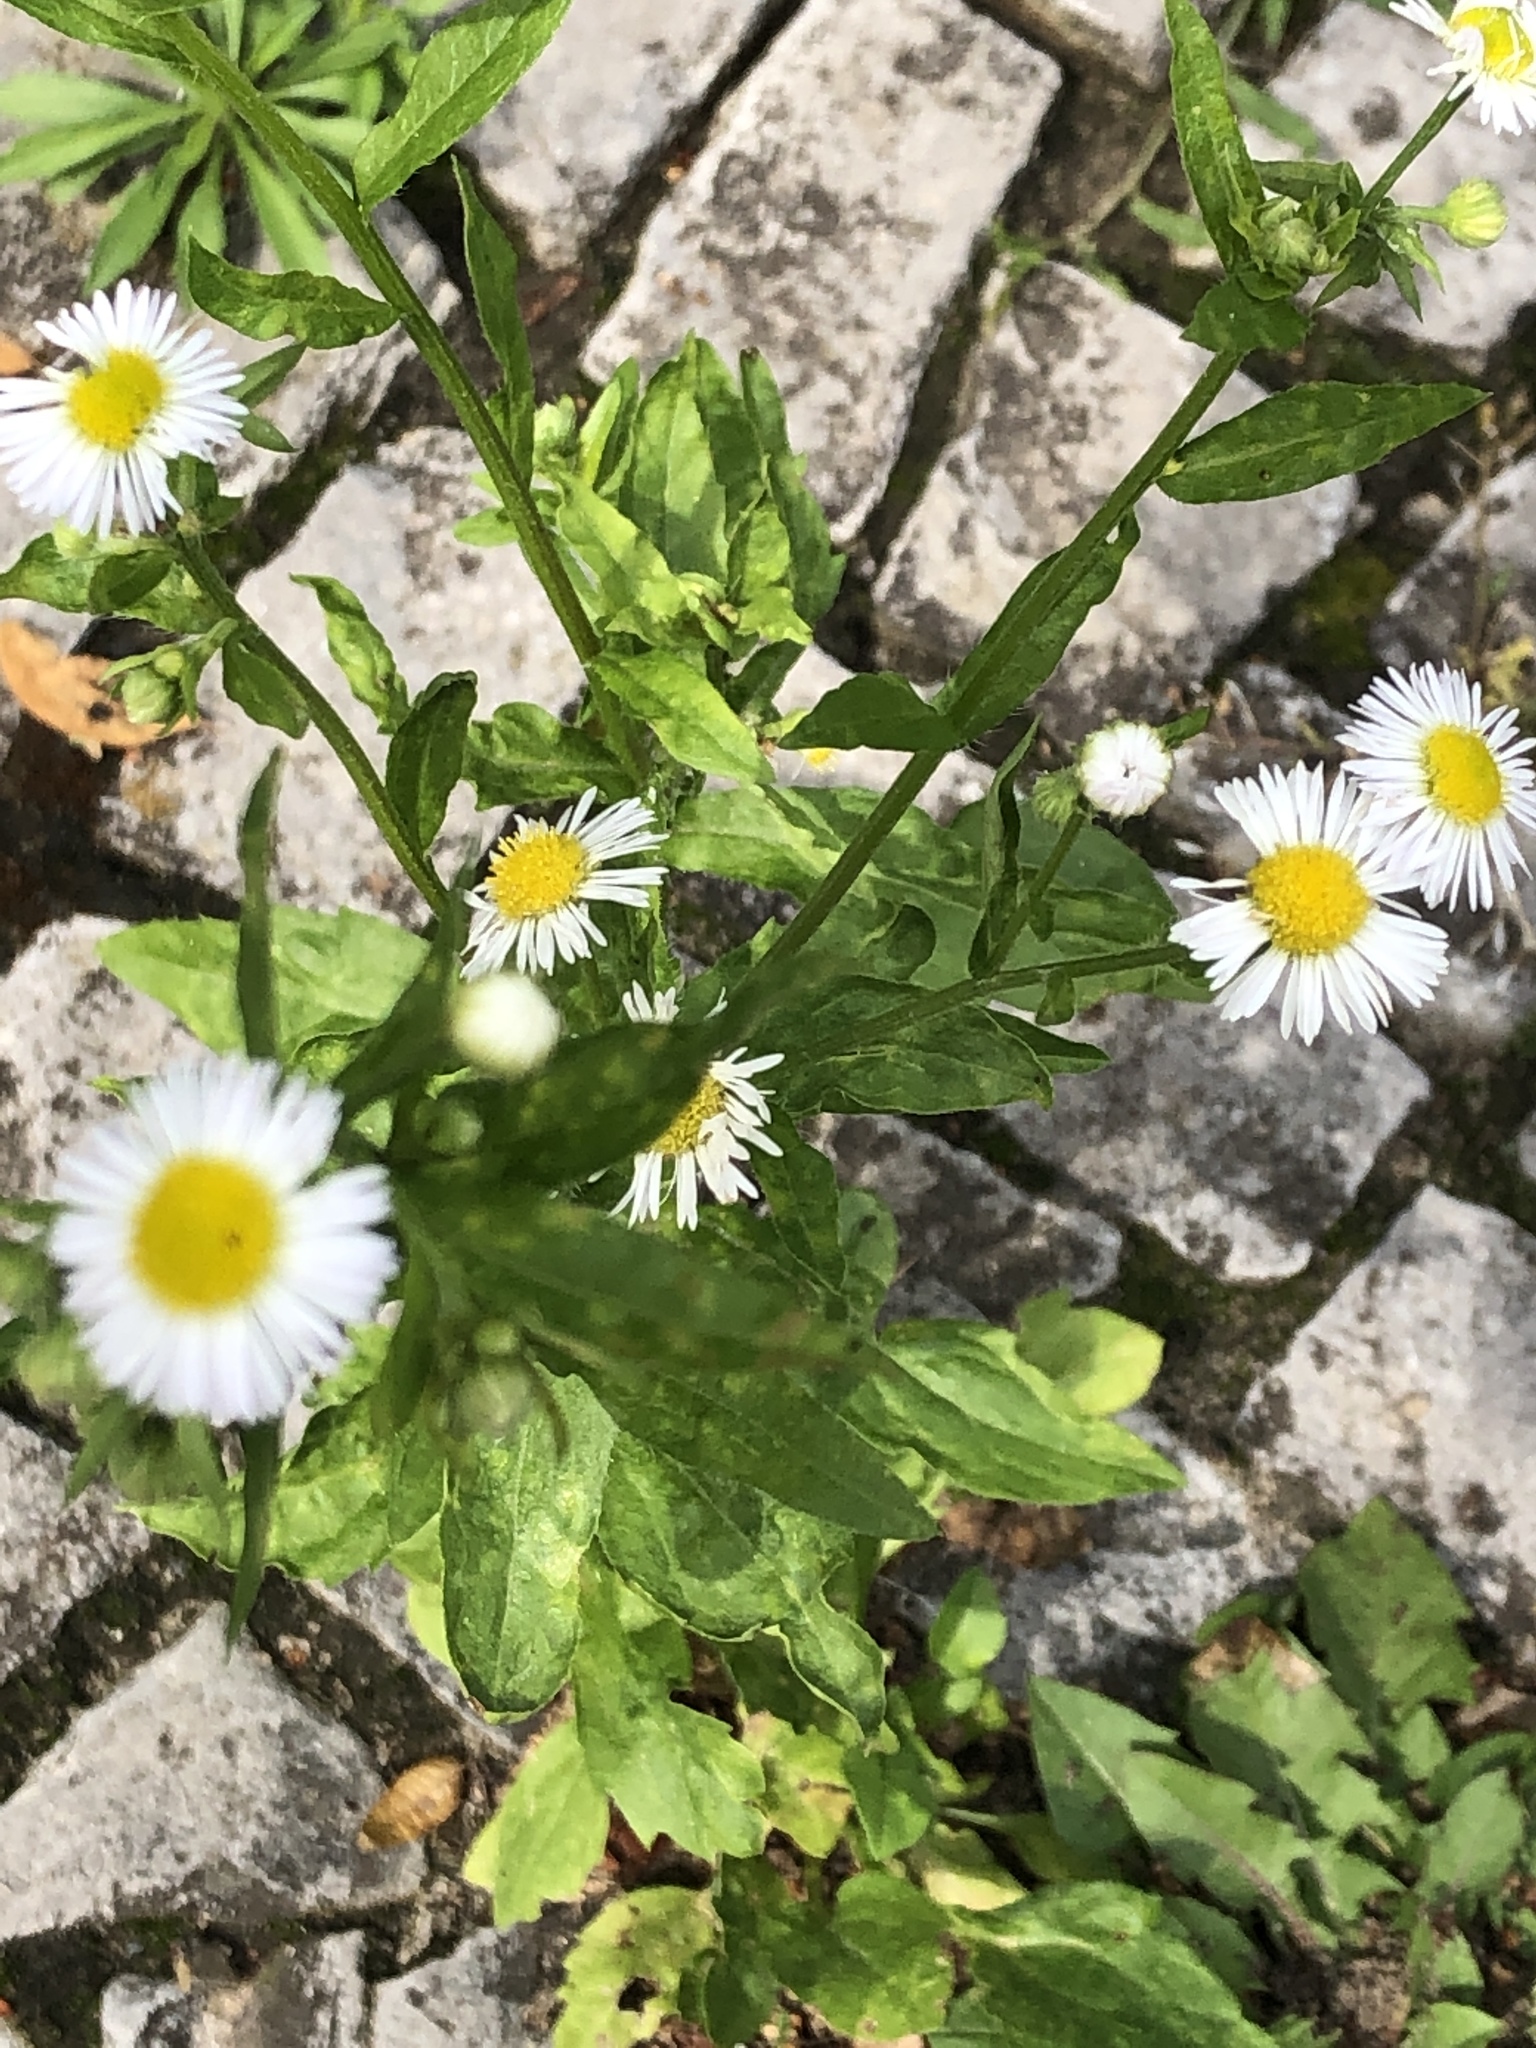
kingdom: Plantae
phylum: Tracheophyta
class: Magnoliopsida
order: Asterales
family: Asteraceae
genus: Erigeron
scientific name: Erigeron annuus
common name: Tall fleabane
